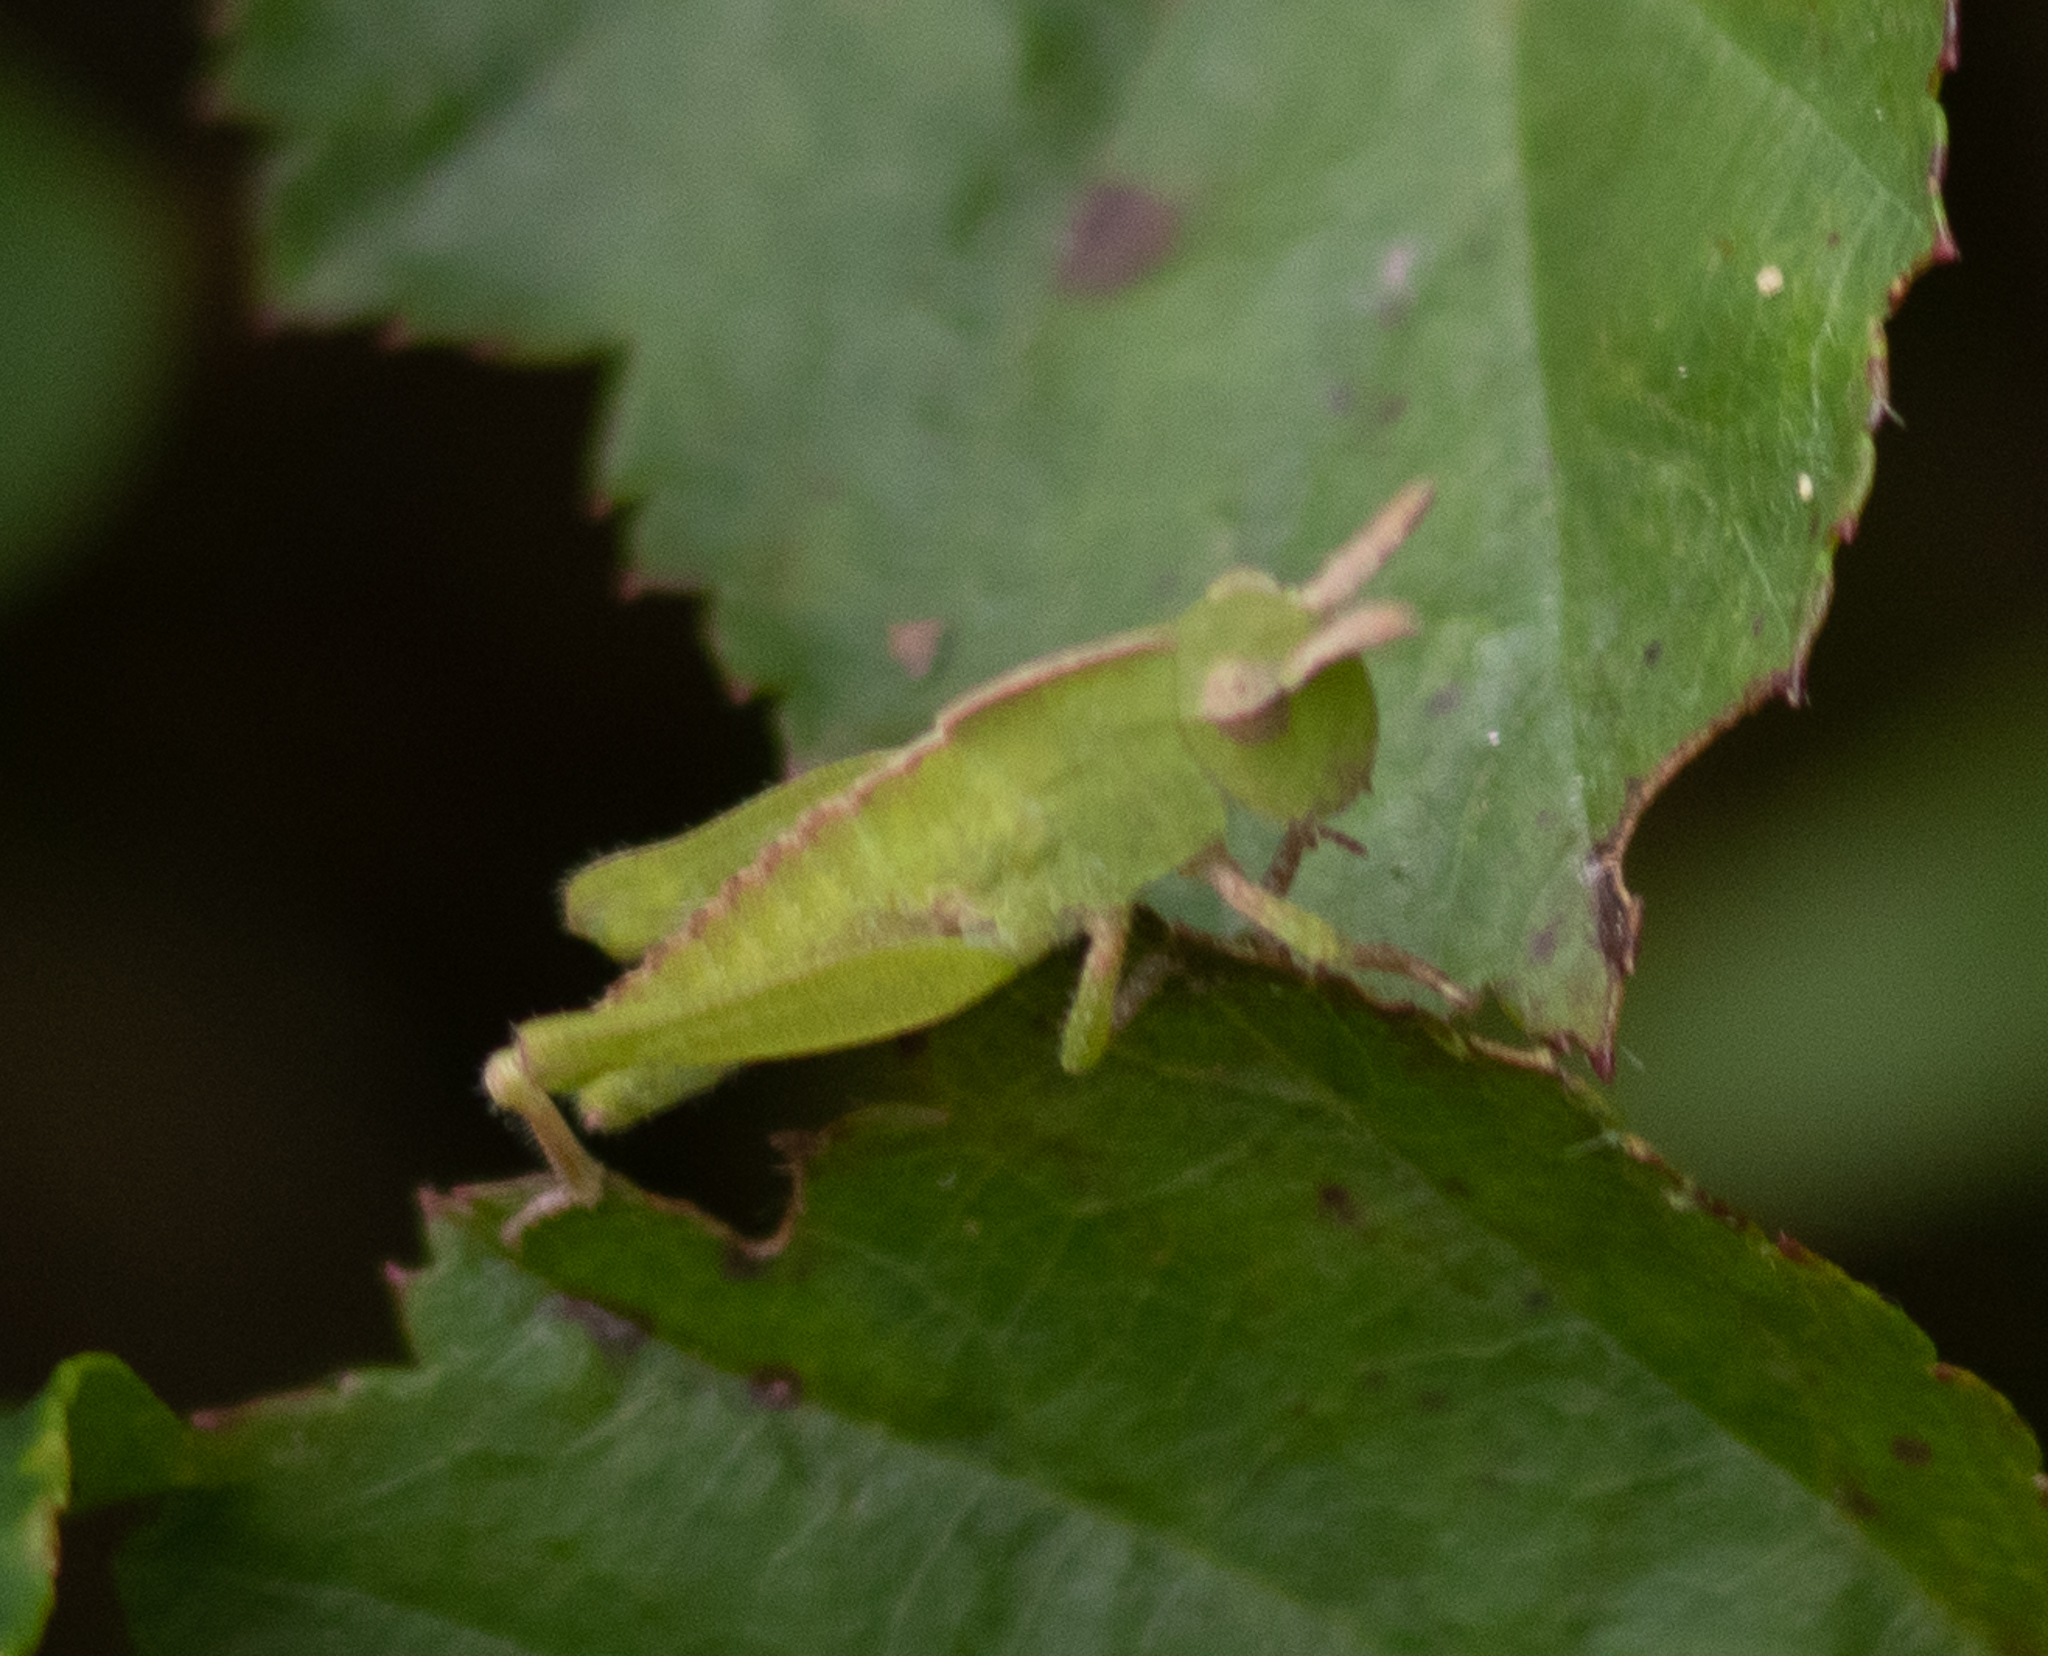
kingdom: Animalia
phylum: Arthropoda
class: Insecta
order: Orthoptera
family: Acrididae
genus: Chortophaga
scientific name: Chortophaga viridifasciata
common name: Green-striped grasshopper
